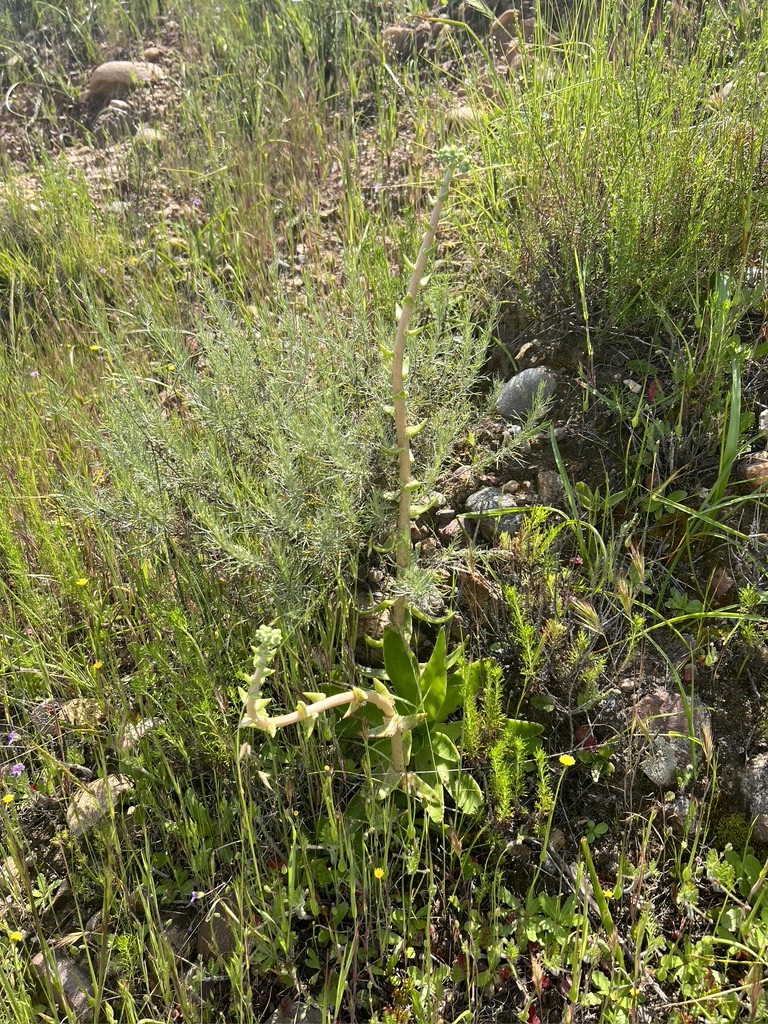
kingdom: Plantae
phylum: Tracheophyta
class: Magnoliopsida
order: Saxifragales
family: Crassulaceae
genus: Dudleya
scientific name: Dudleya lanceolata
